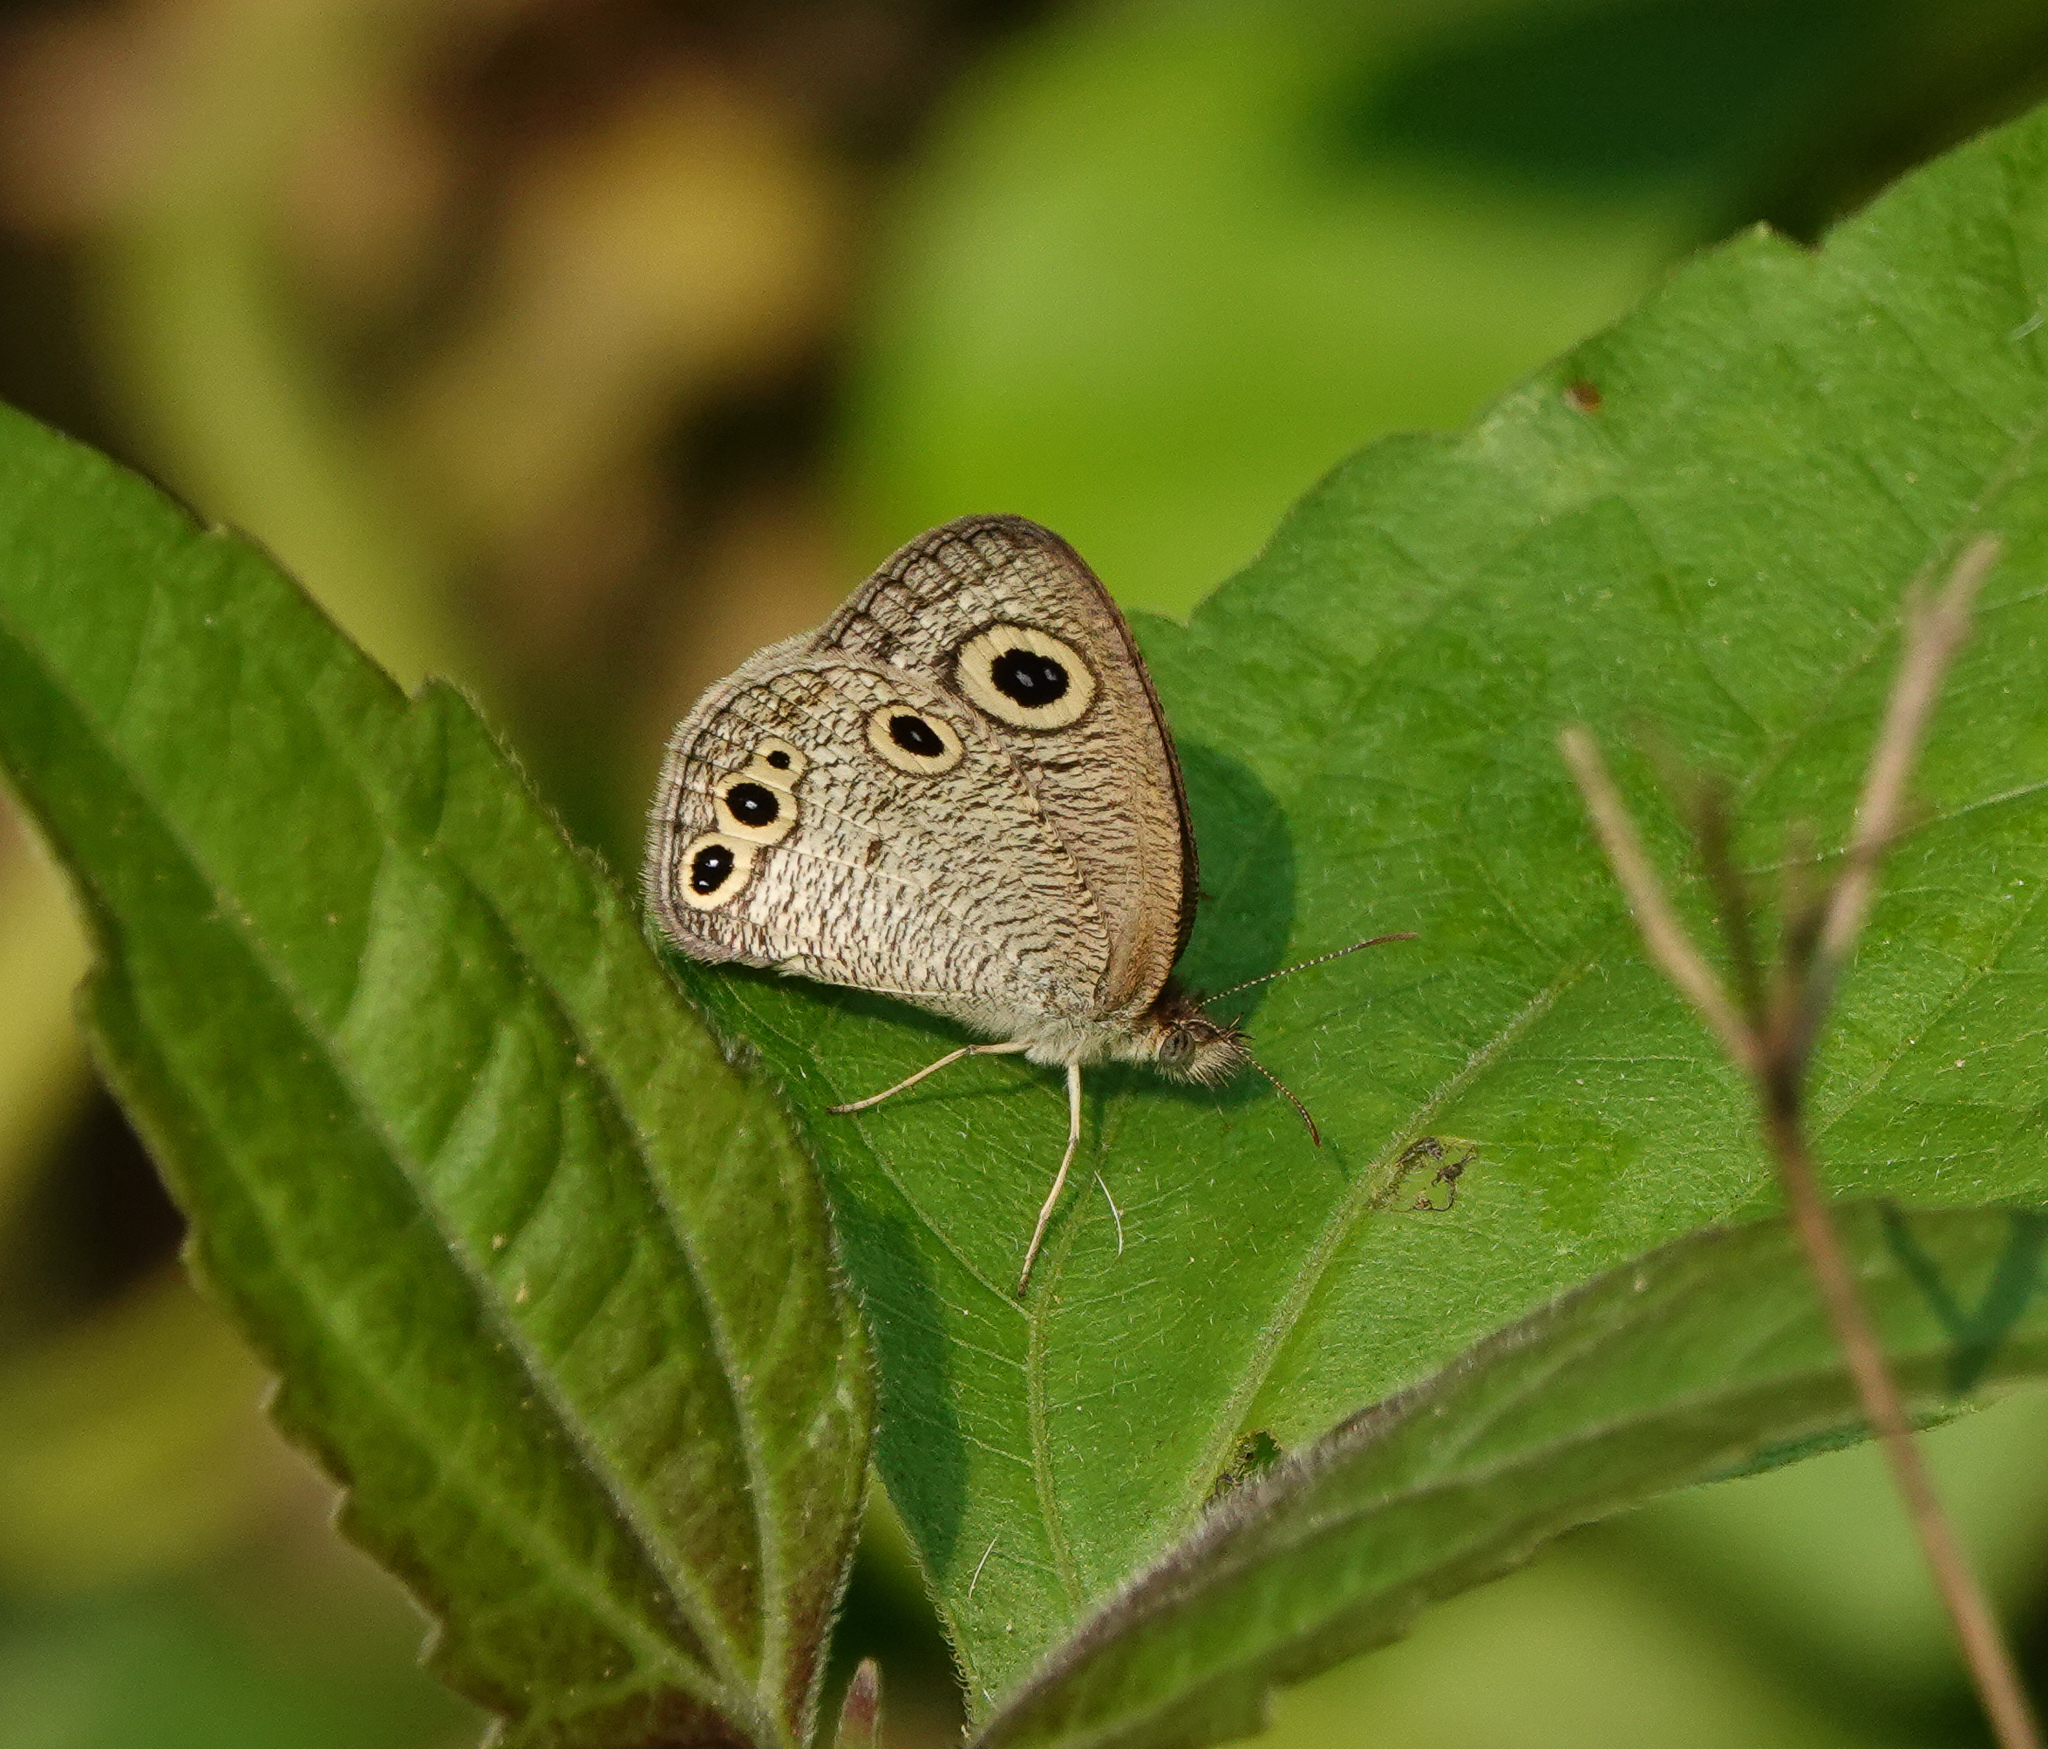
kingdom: Animalia
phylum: Arthropoda
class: Insecta
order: Lepidoptera
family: Nymphalidae
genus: Ypthima
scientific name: Ypthima huebneri
